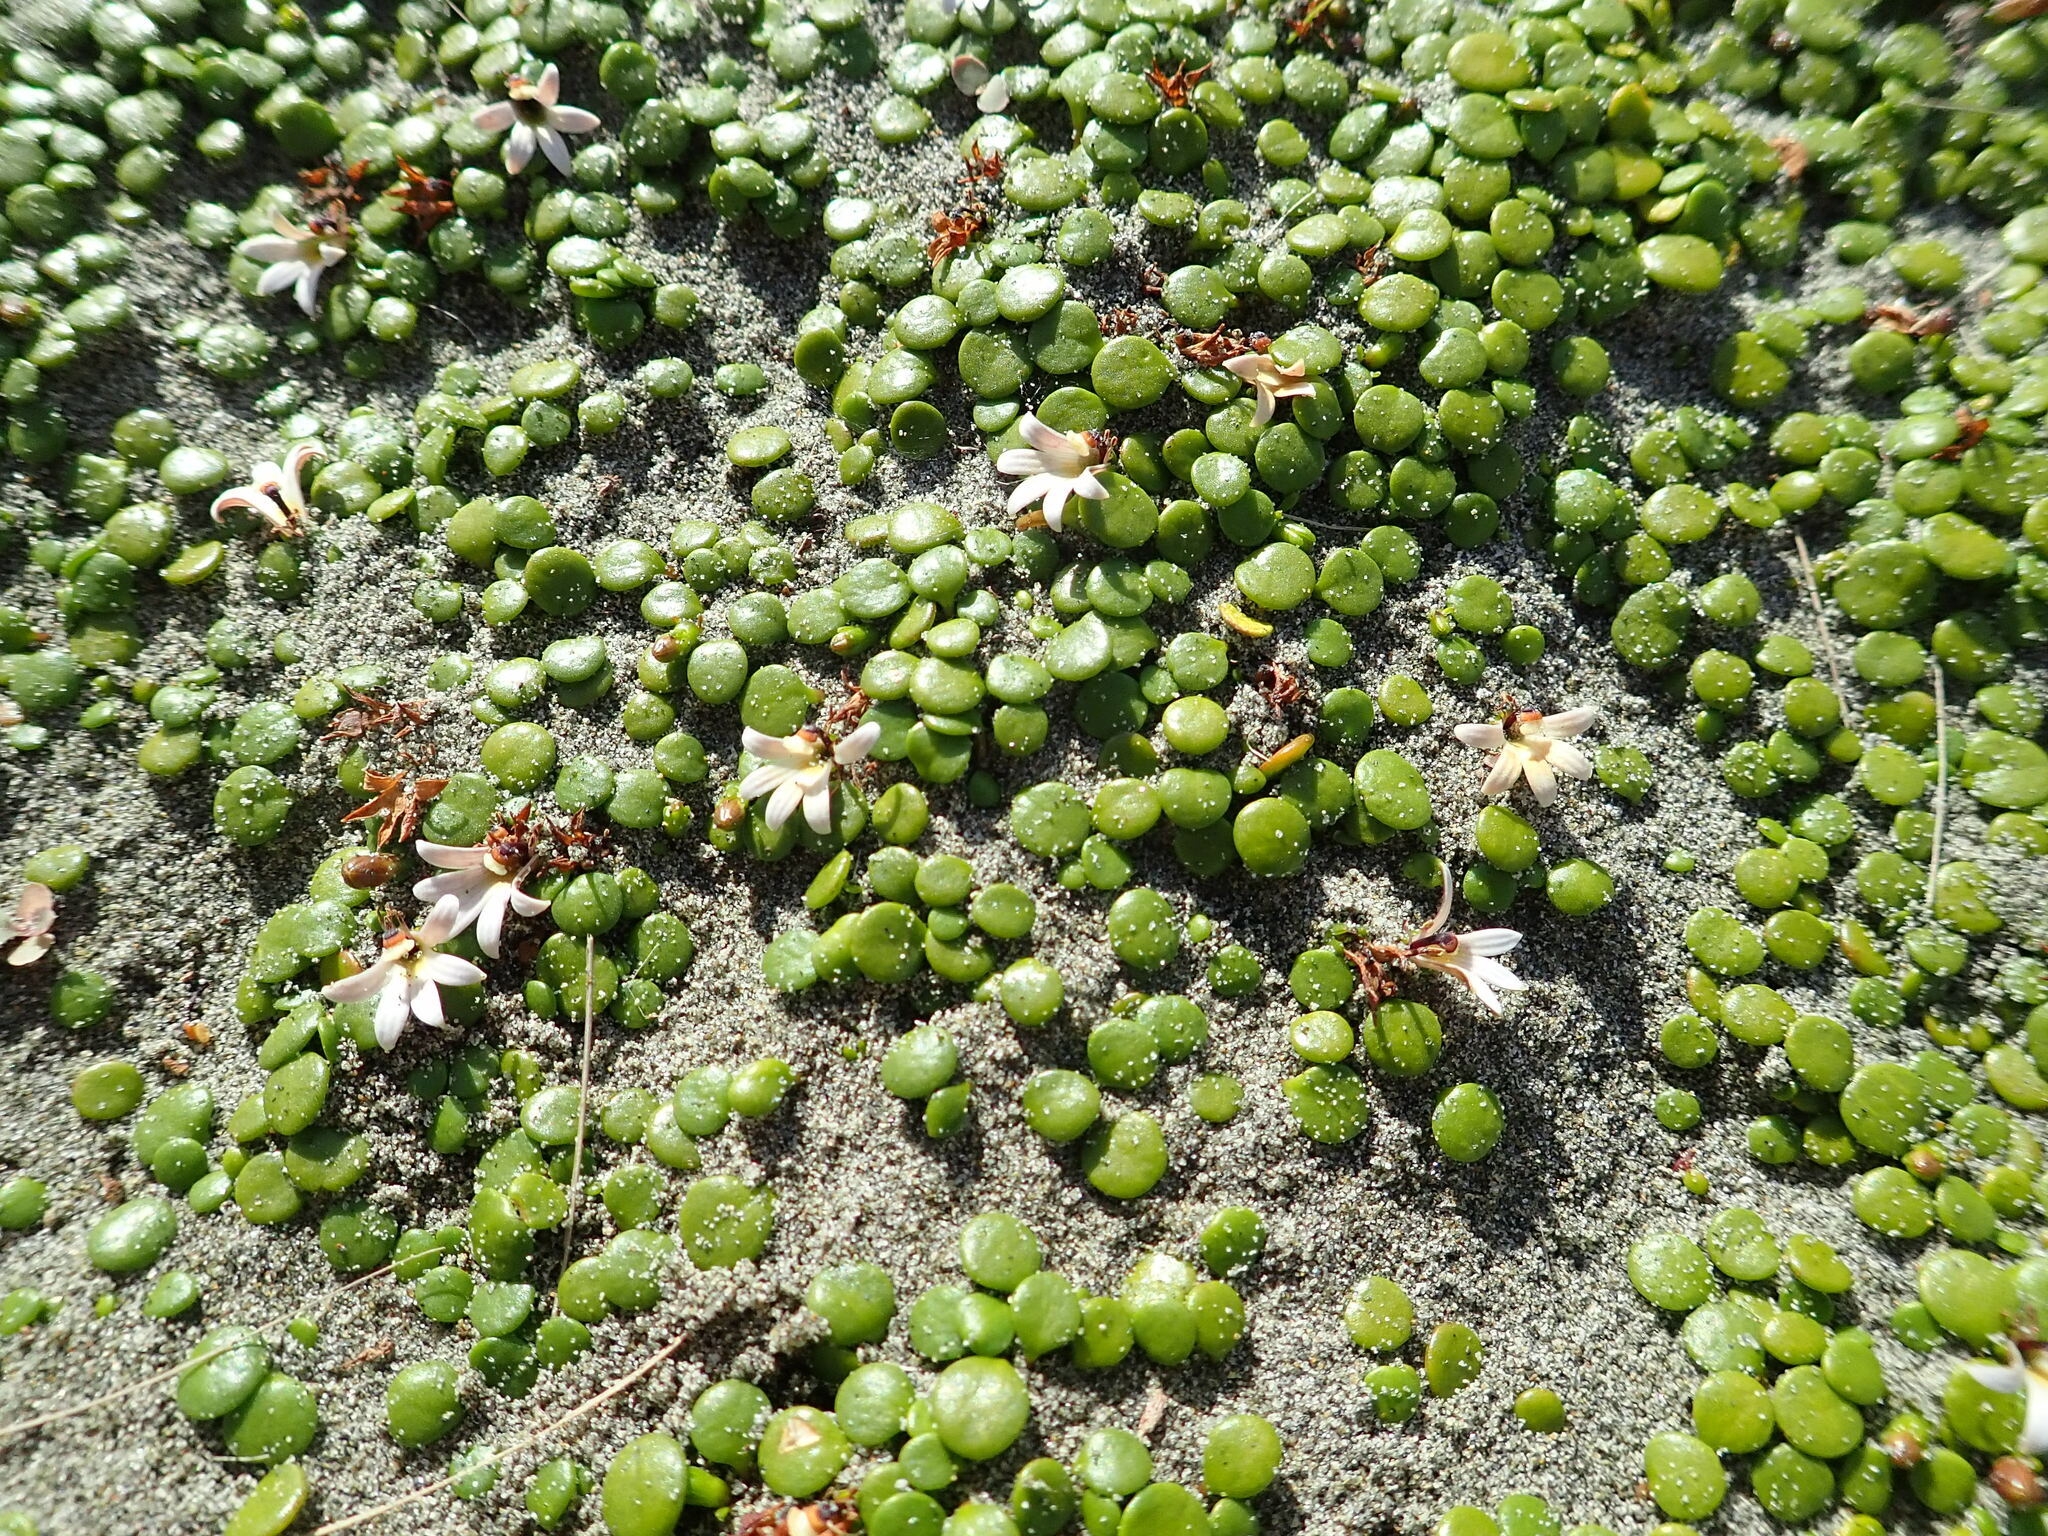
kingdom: Plantae
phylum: Tracheophyta
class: Magnoliopsida
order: Asterales
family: Goodeniaceae
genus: Goodenia
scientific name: Goodenia heenanii
